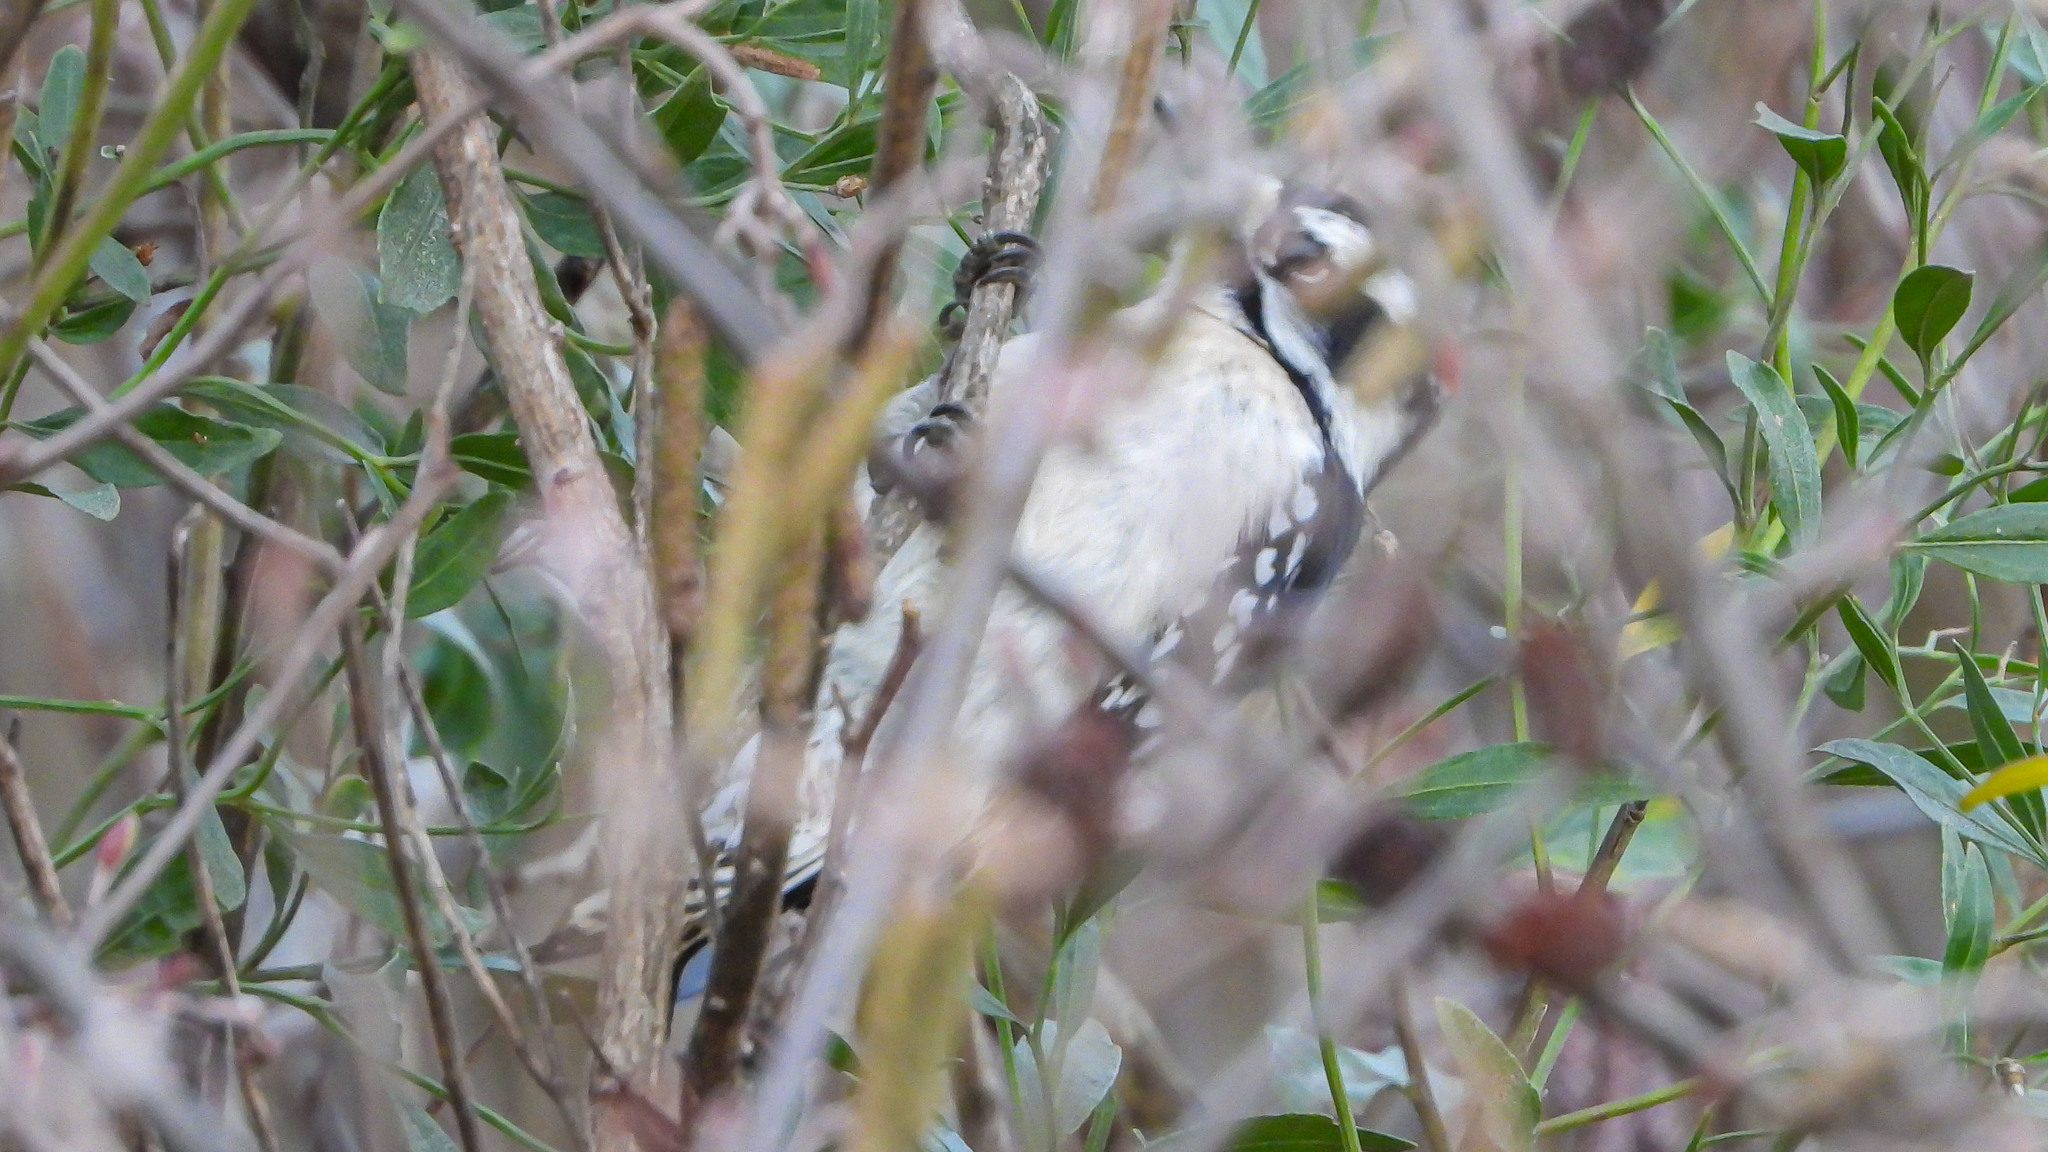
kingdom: Animalia
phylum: Chordata
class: Aves
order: Piciformes
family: Picidae
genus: Dryobates
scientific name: Dryobates pubescens
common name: Downy woodpecker
